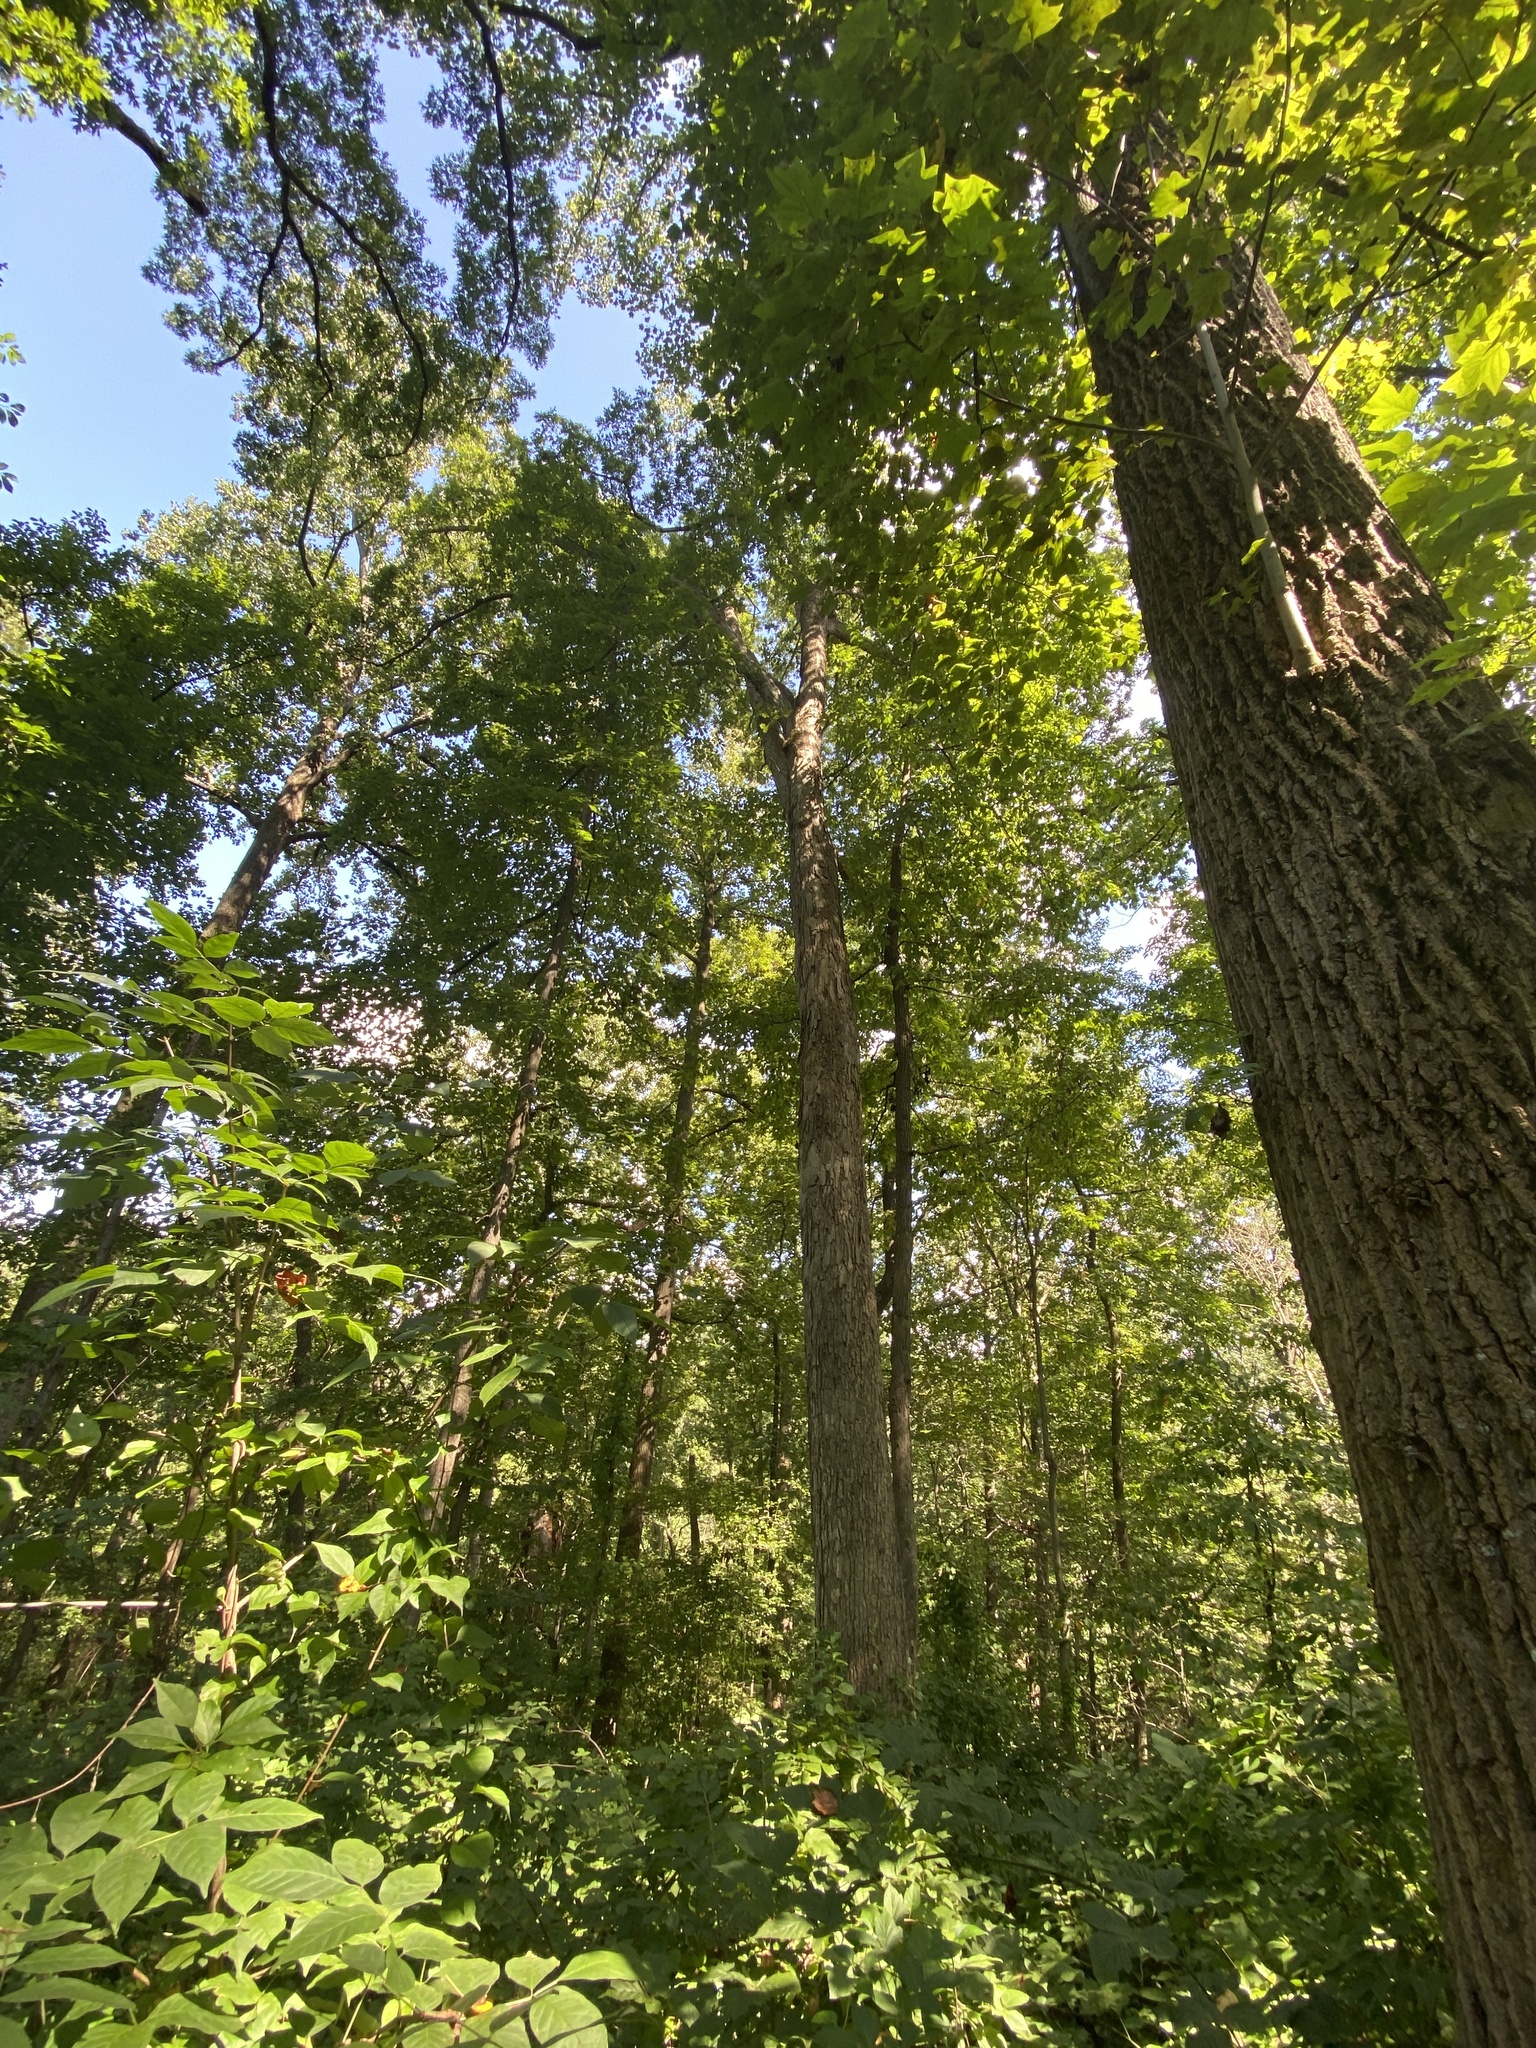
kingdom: Plantae
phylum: Tracheophyta
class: Magnoliopsida
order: Fagales
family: Fagaceae
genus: Quercus
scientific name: Quercus alba
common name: White oak
